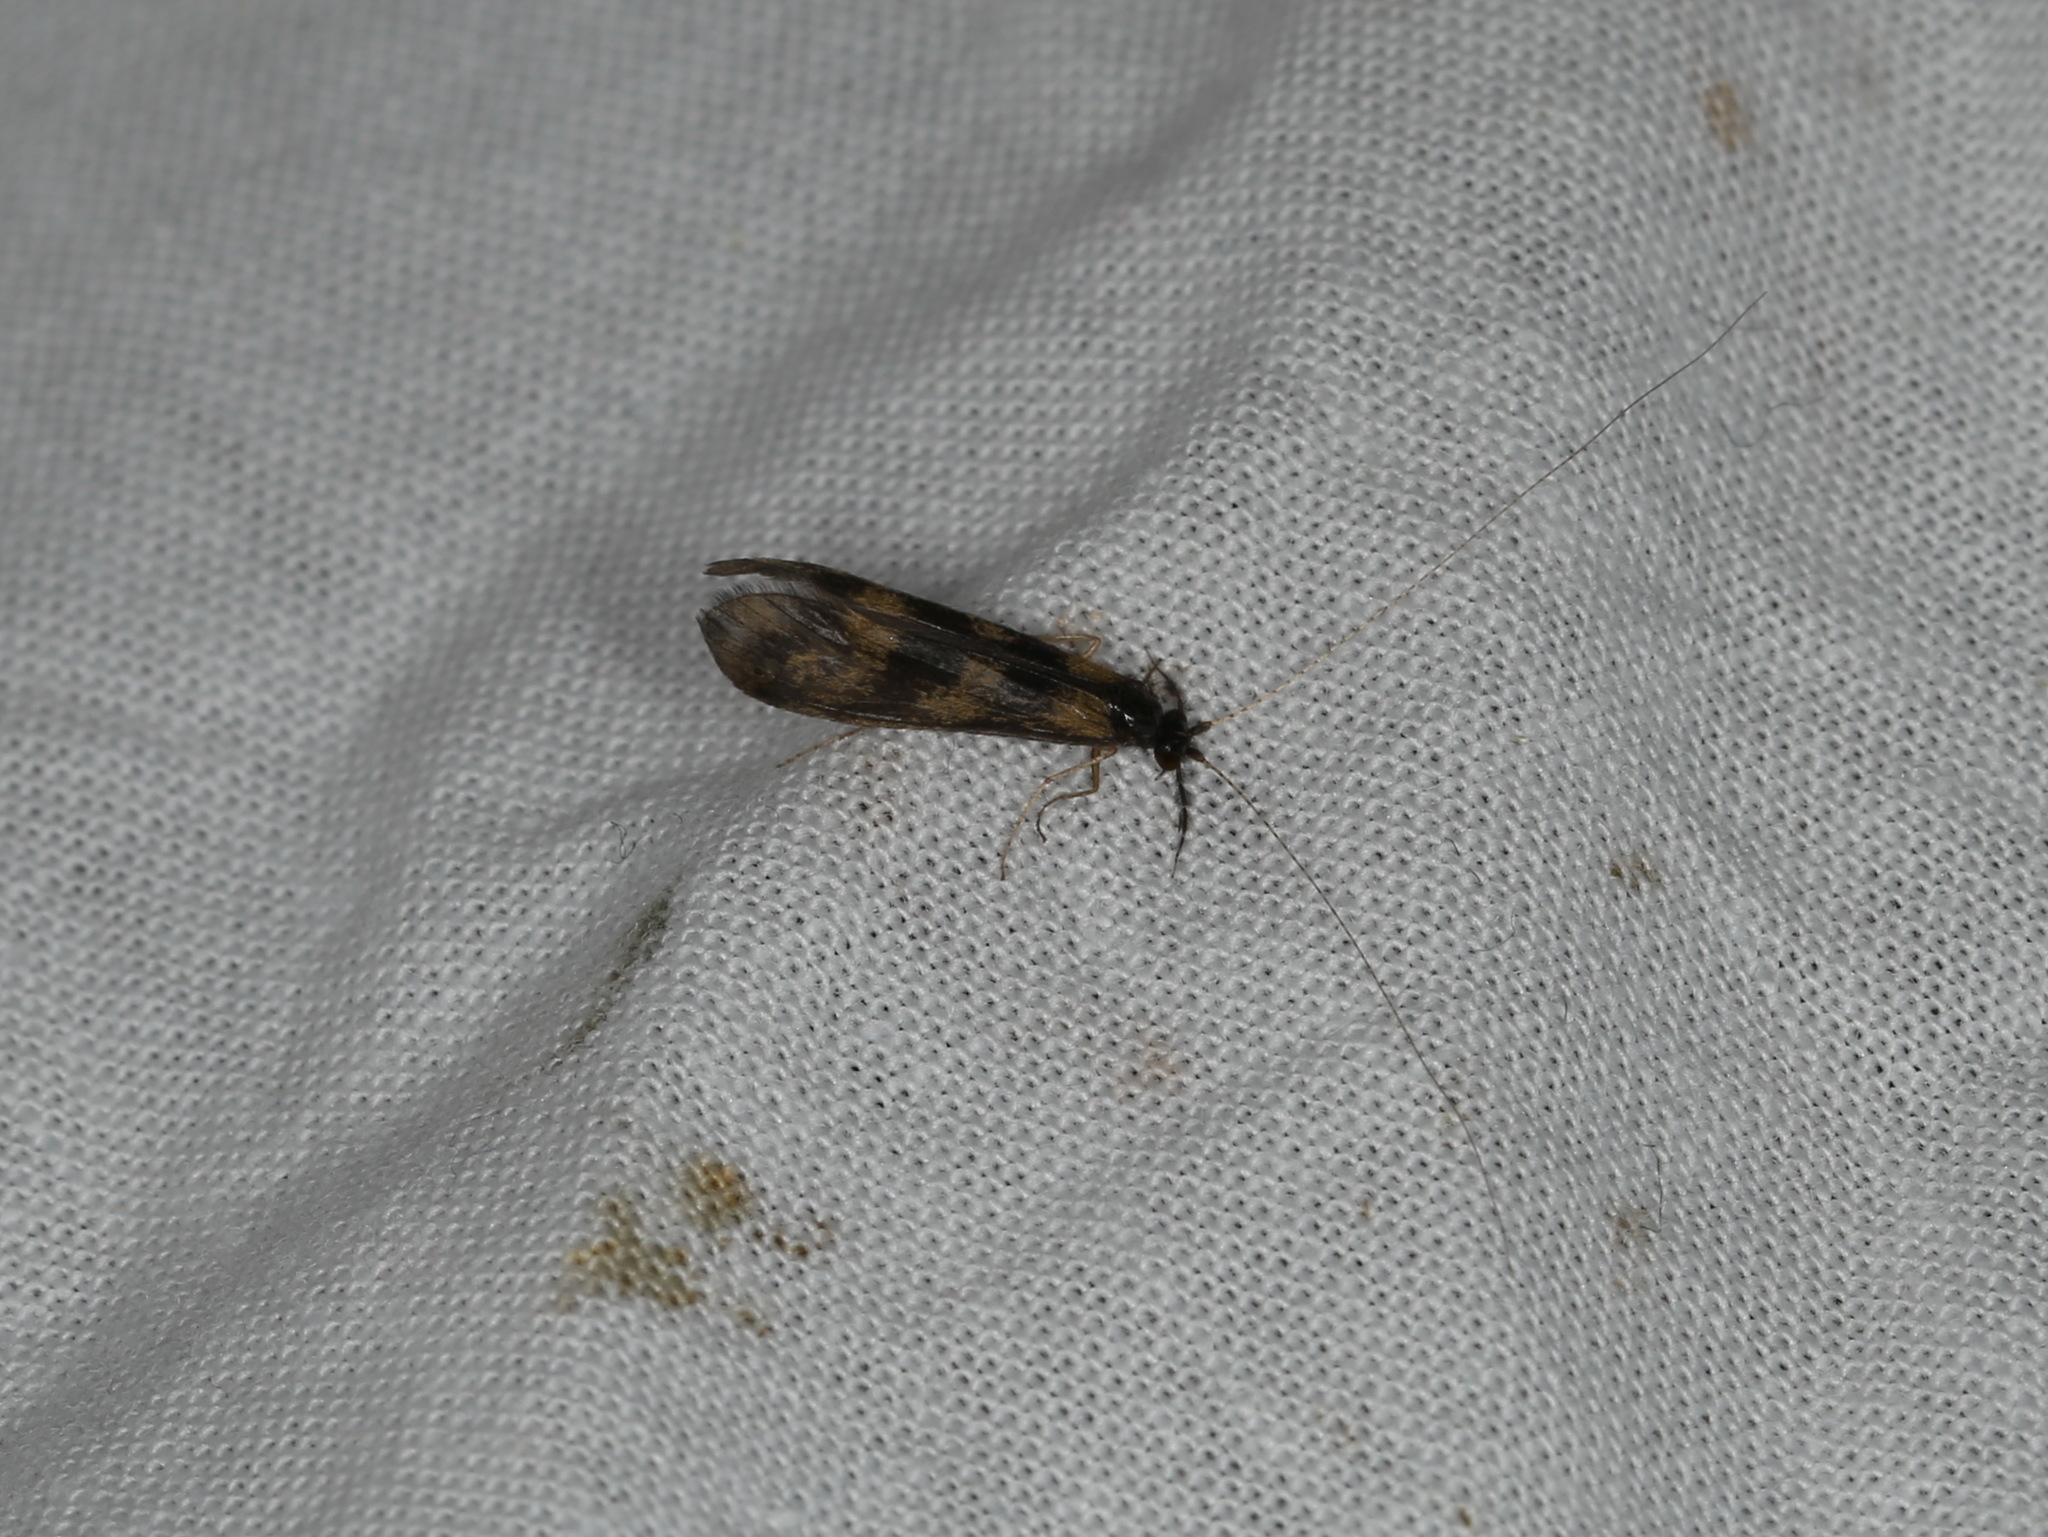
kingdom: Animalia
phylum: Arthropoda
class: Insecta
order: Trichoptera
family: Leptoceridae
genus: Mystacides
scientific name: Mystacides longicornis
